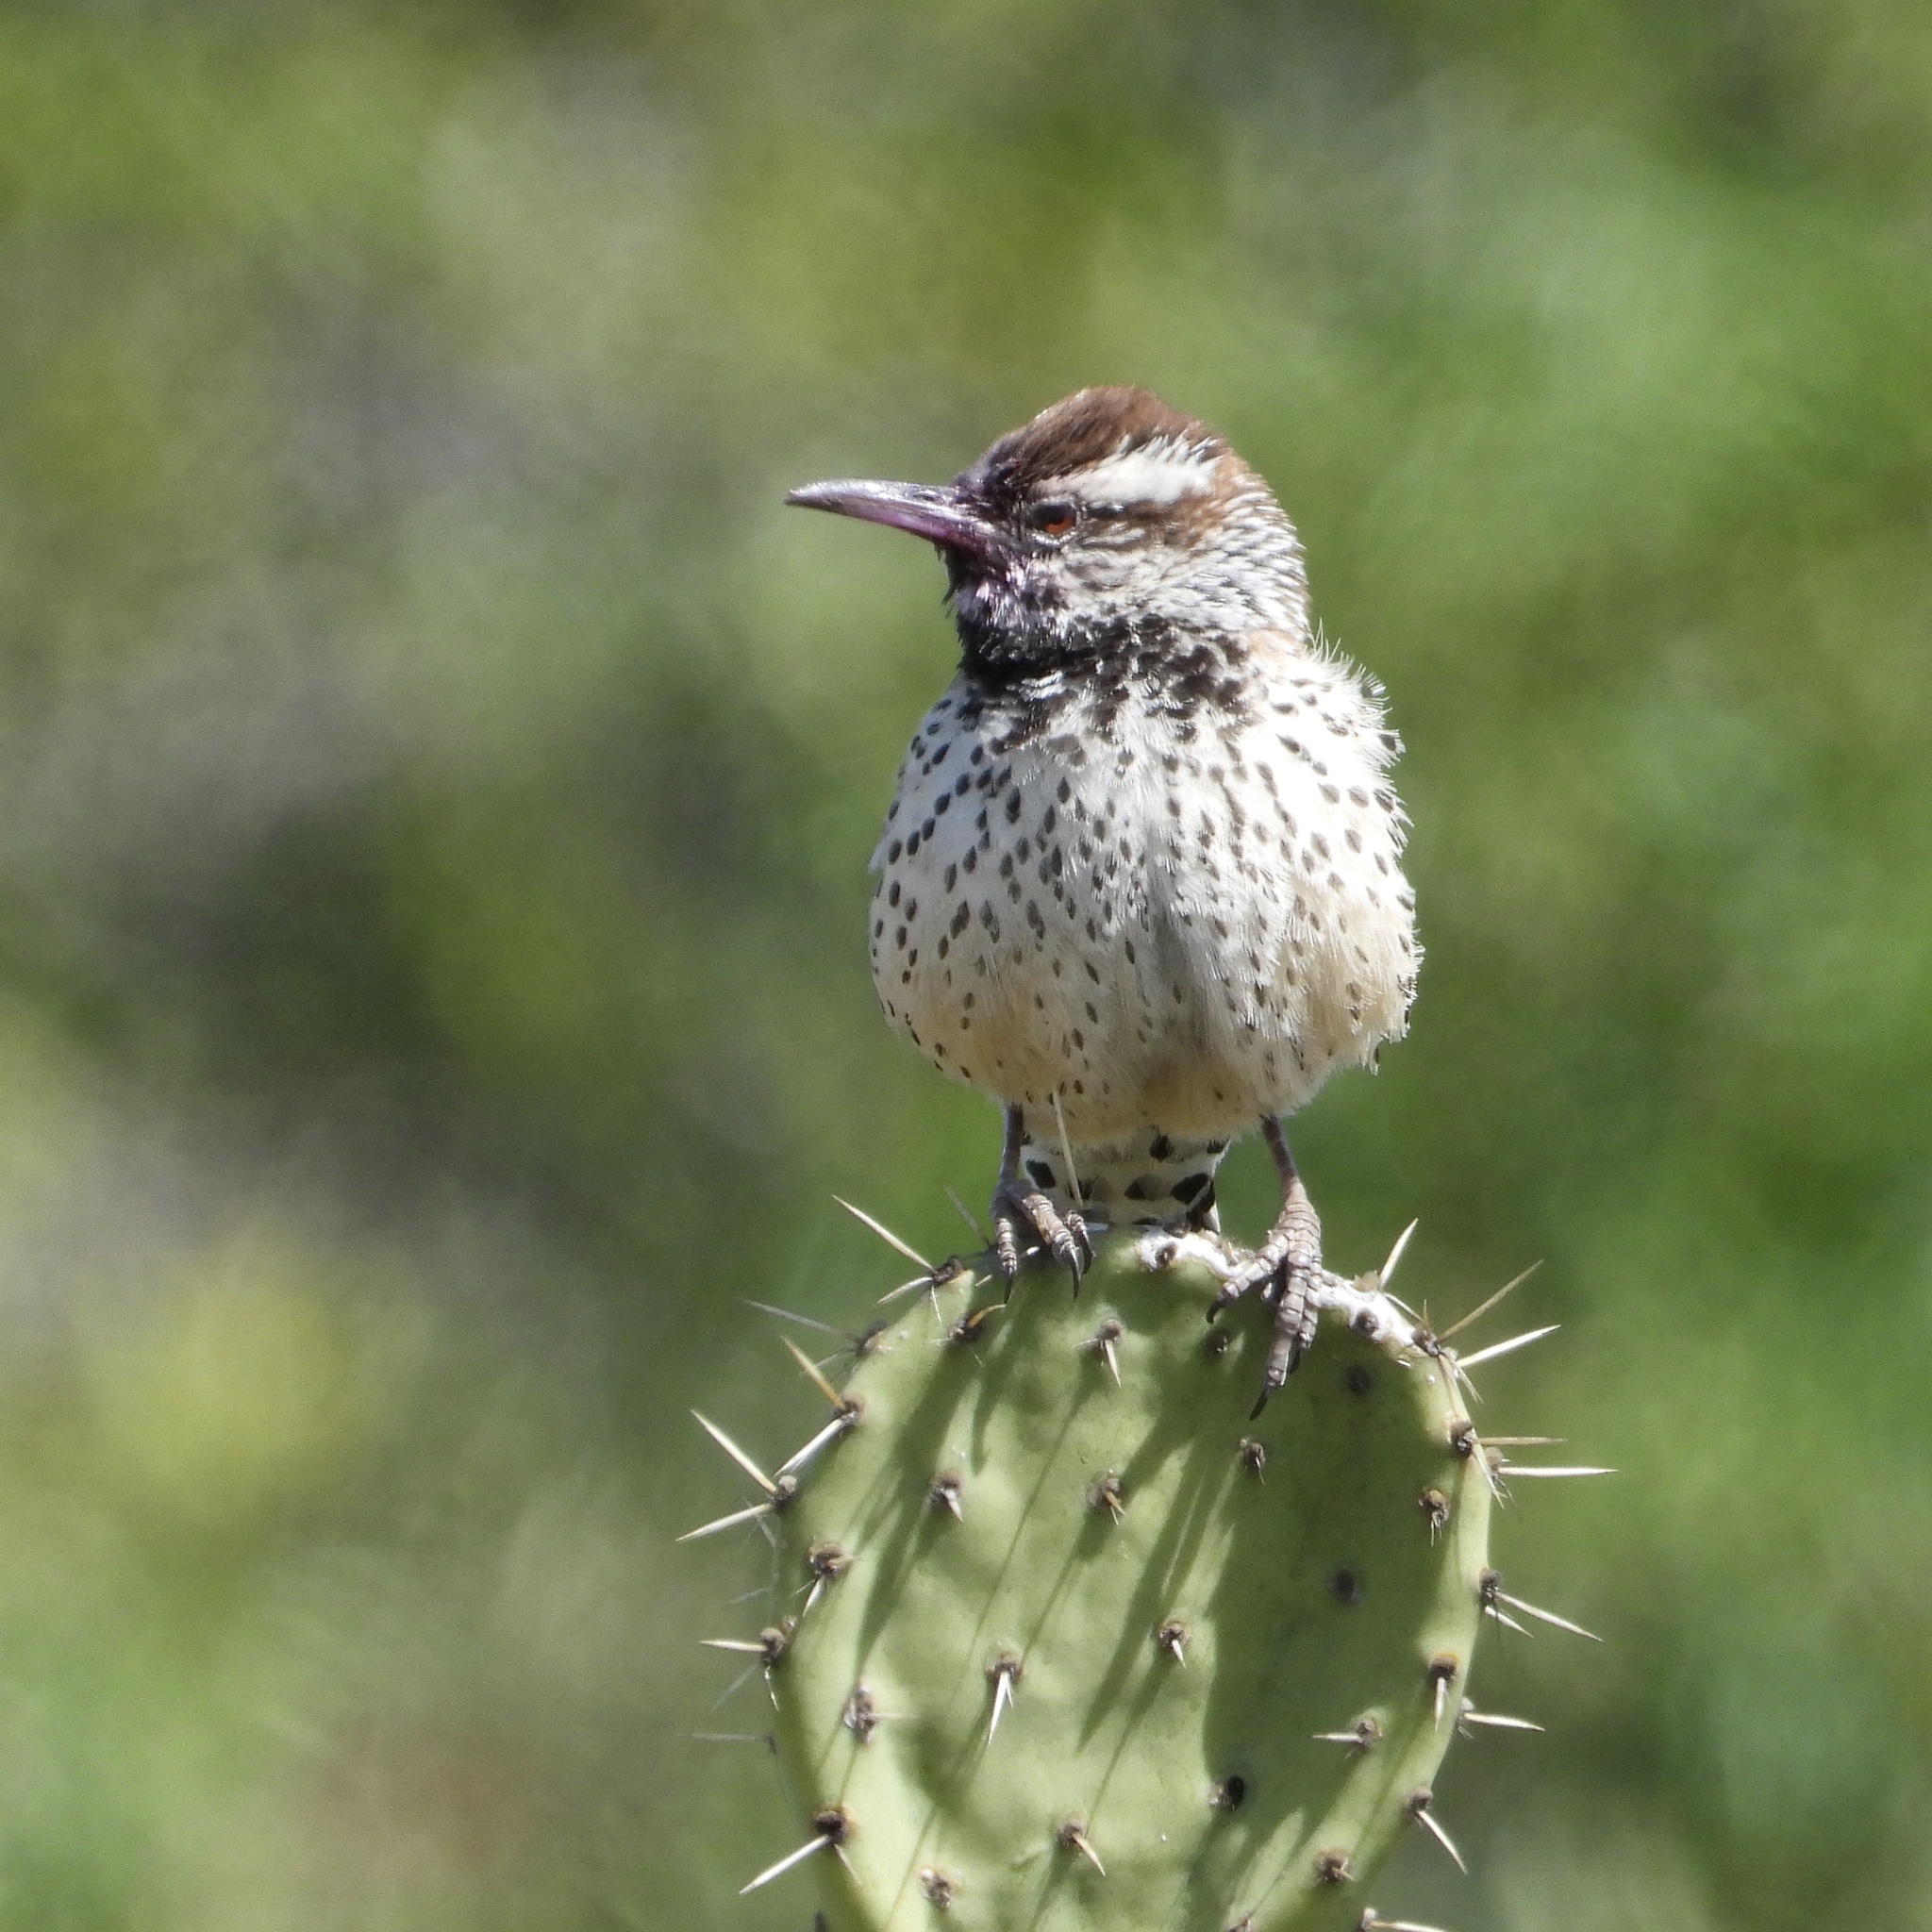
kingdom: Animalia
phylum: Chordata
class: Aves
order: Passeriformes
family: Troglodytidae
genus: Campylorhynchus
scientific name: Campylorhynchus brunneicapillus
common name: Cactus wren
